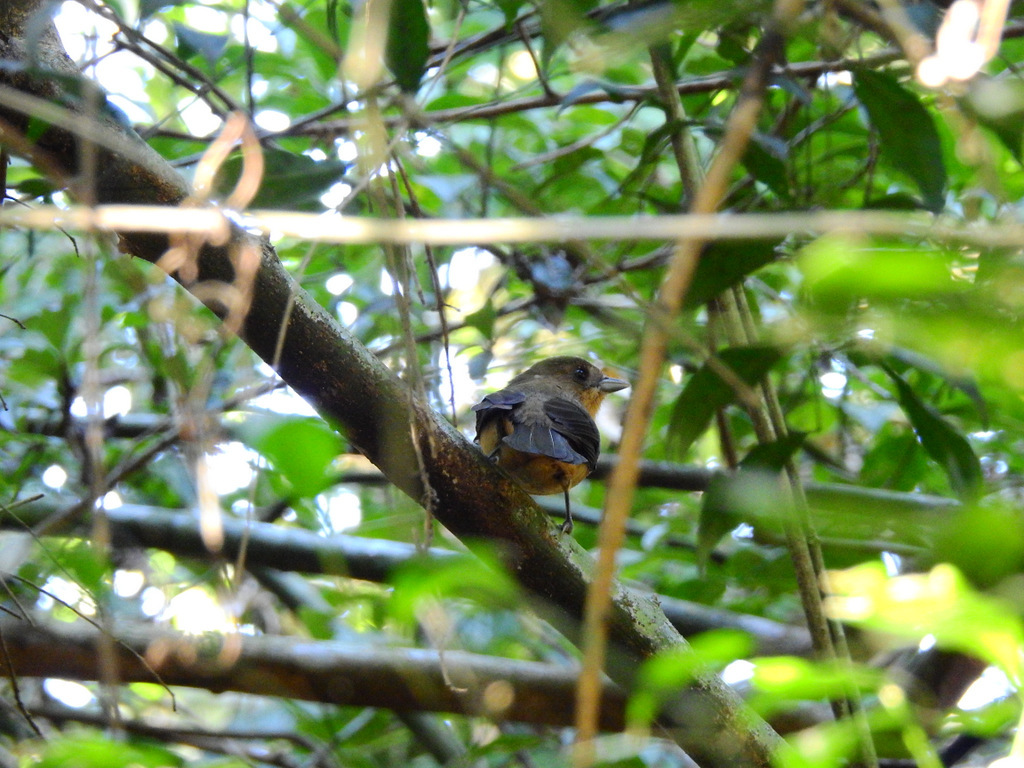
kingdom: Animalia
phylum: Chordata
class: Aves
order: Passeriformes
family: Thraupidae
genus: Trichothraupis
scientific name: Trichothraupis melanops
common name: Black-goggled tanager
